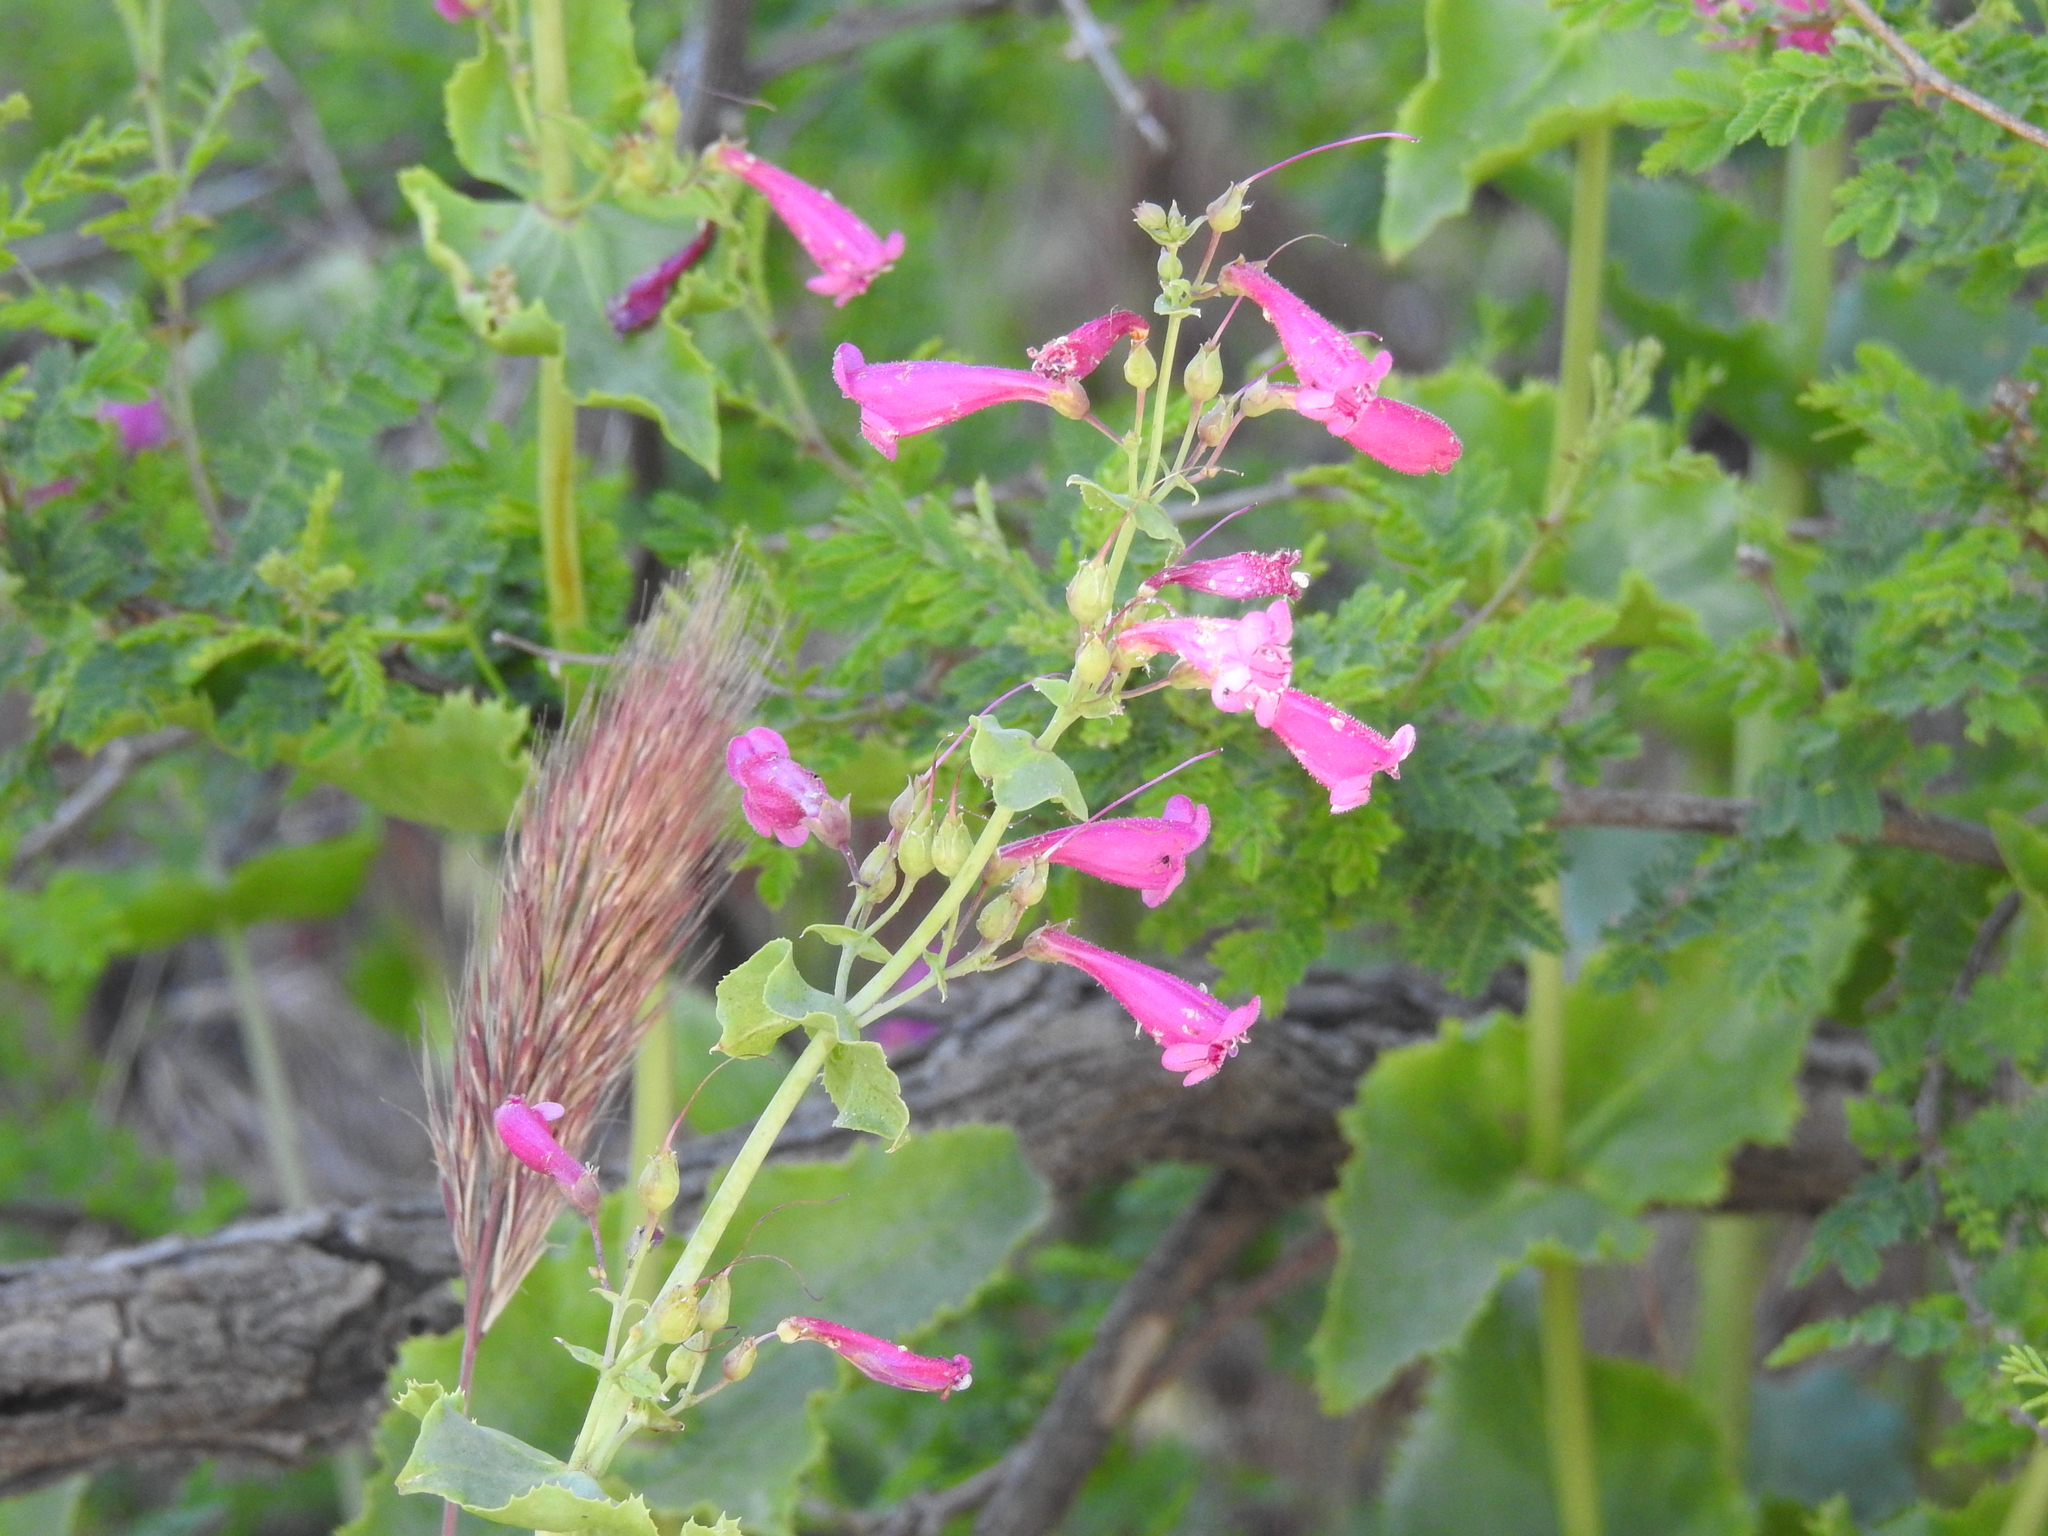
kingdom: Plantae
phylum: Tracheophyta
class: Magnoliopsida
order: Lamiales
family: Plantaginaceae
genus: Penstemon
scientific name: Penstemon pseudospectabilis
